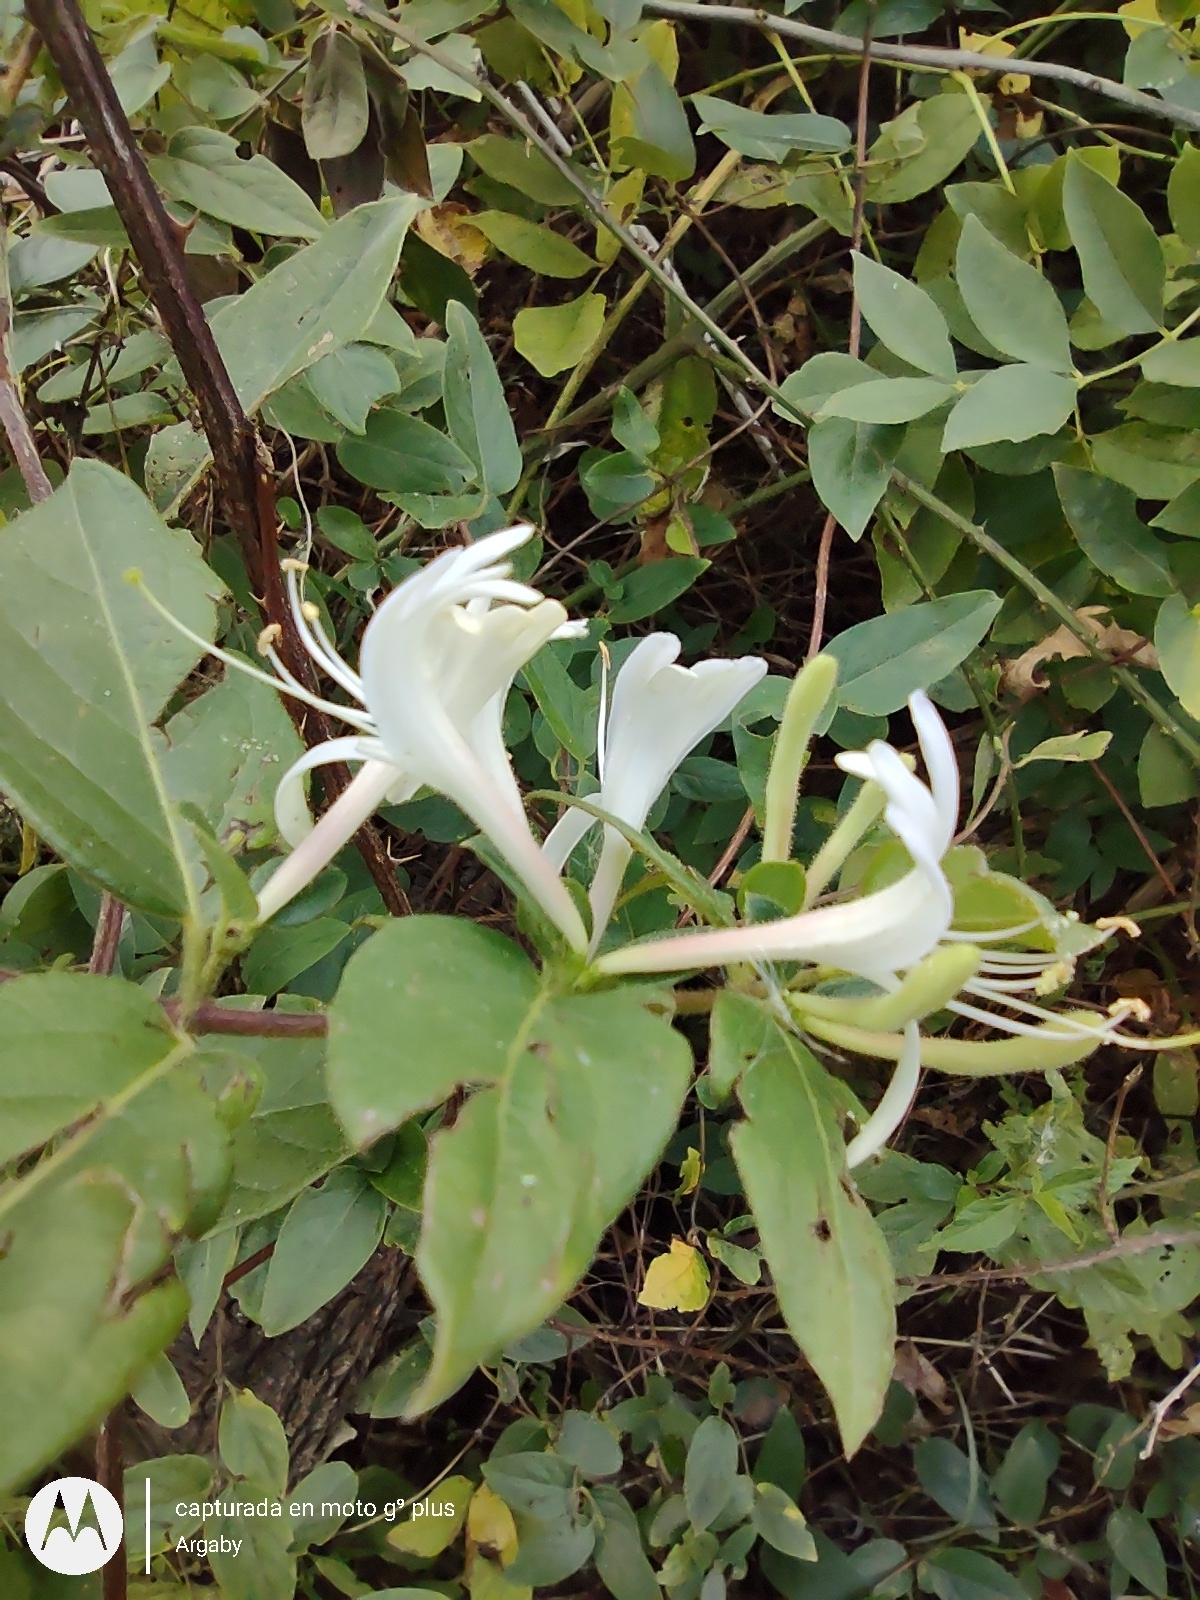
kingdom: Plantae
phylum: Tracheophyta
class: Magnoliopsida
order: Dipsacales
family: Caprifoliaceae
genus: Lonicera
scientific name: Lonicera japonica
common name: Japanese honeysuckle
